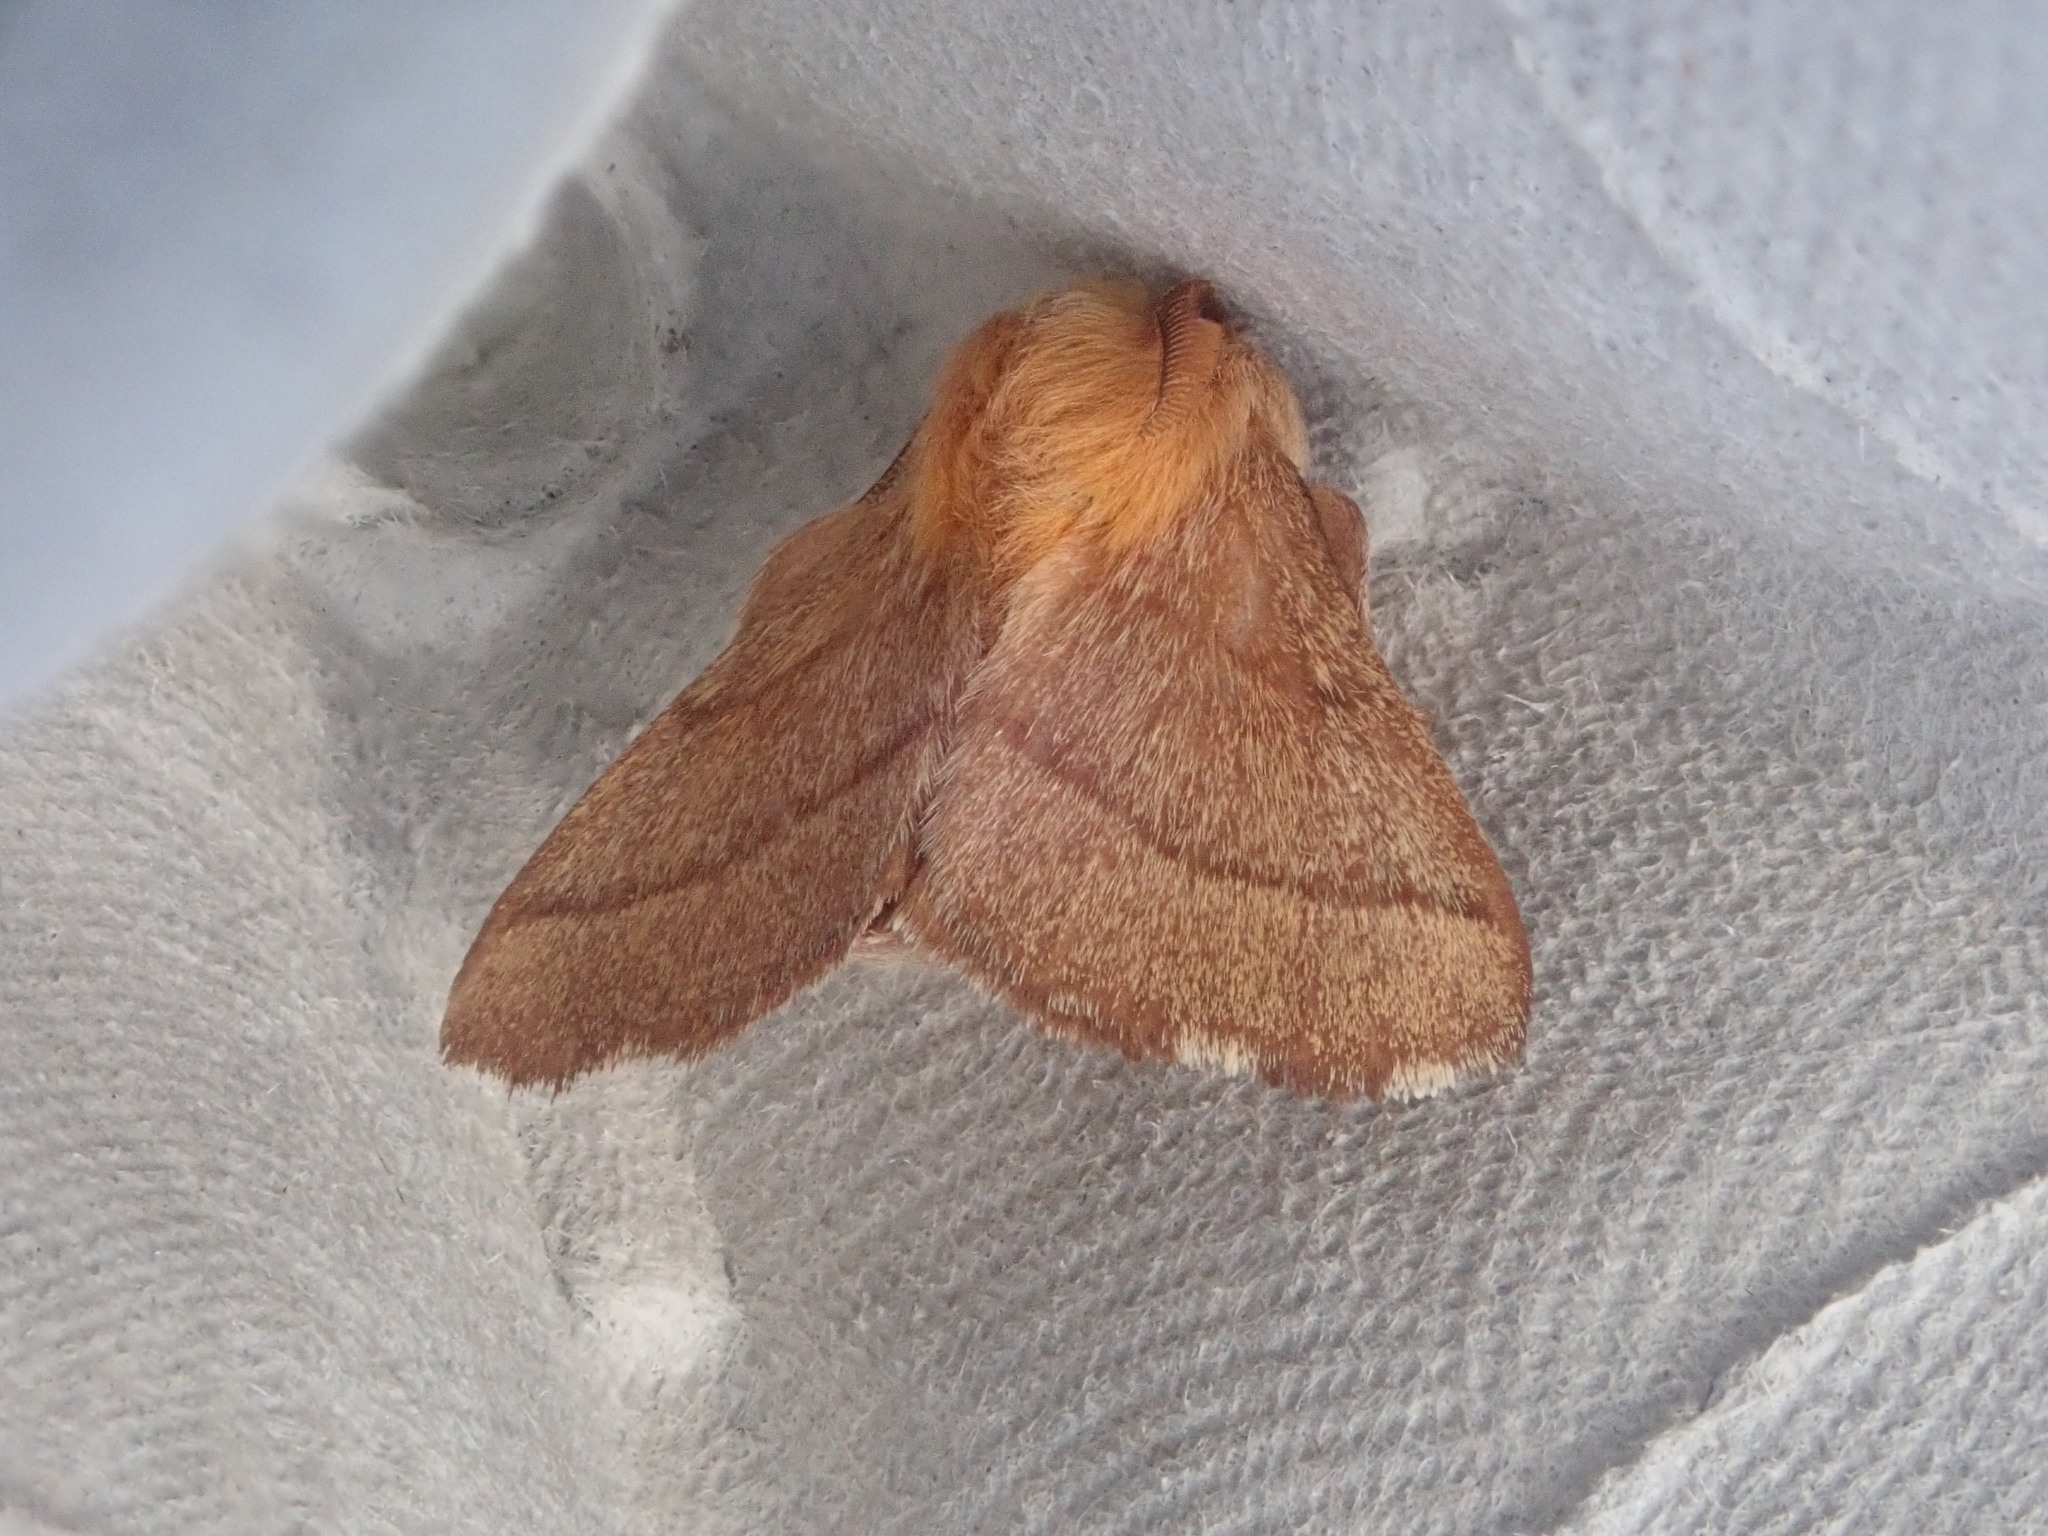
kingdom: Animalia
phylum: Arthropoda
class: Insecta
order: Lepidoptera
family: Lasiocampidae
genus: Malacosoma
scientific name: Malacosoma disstria
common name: Forest tent caterpillar
